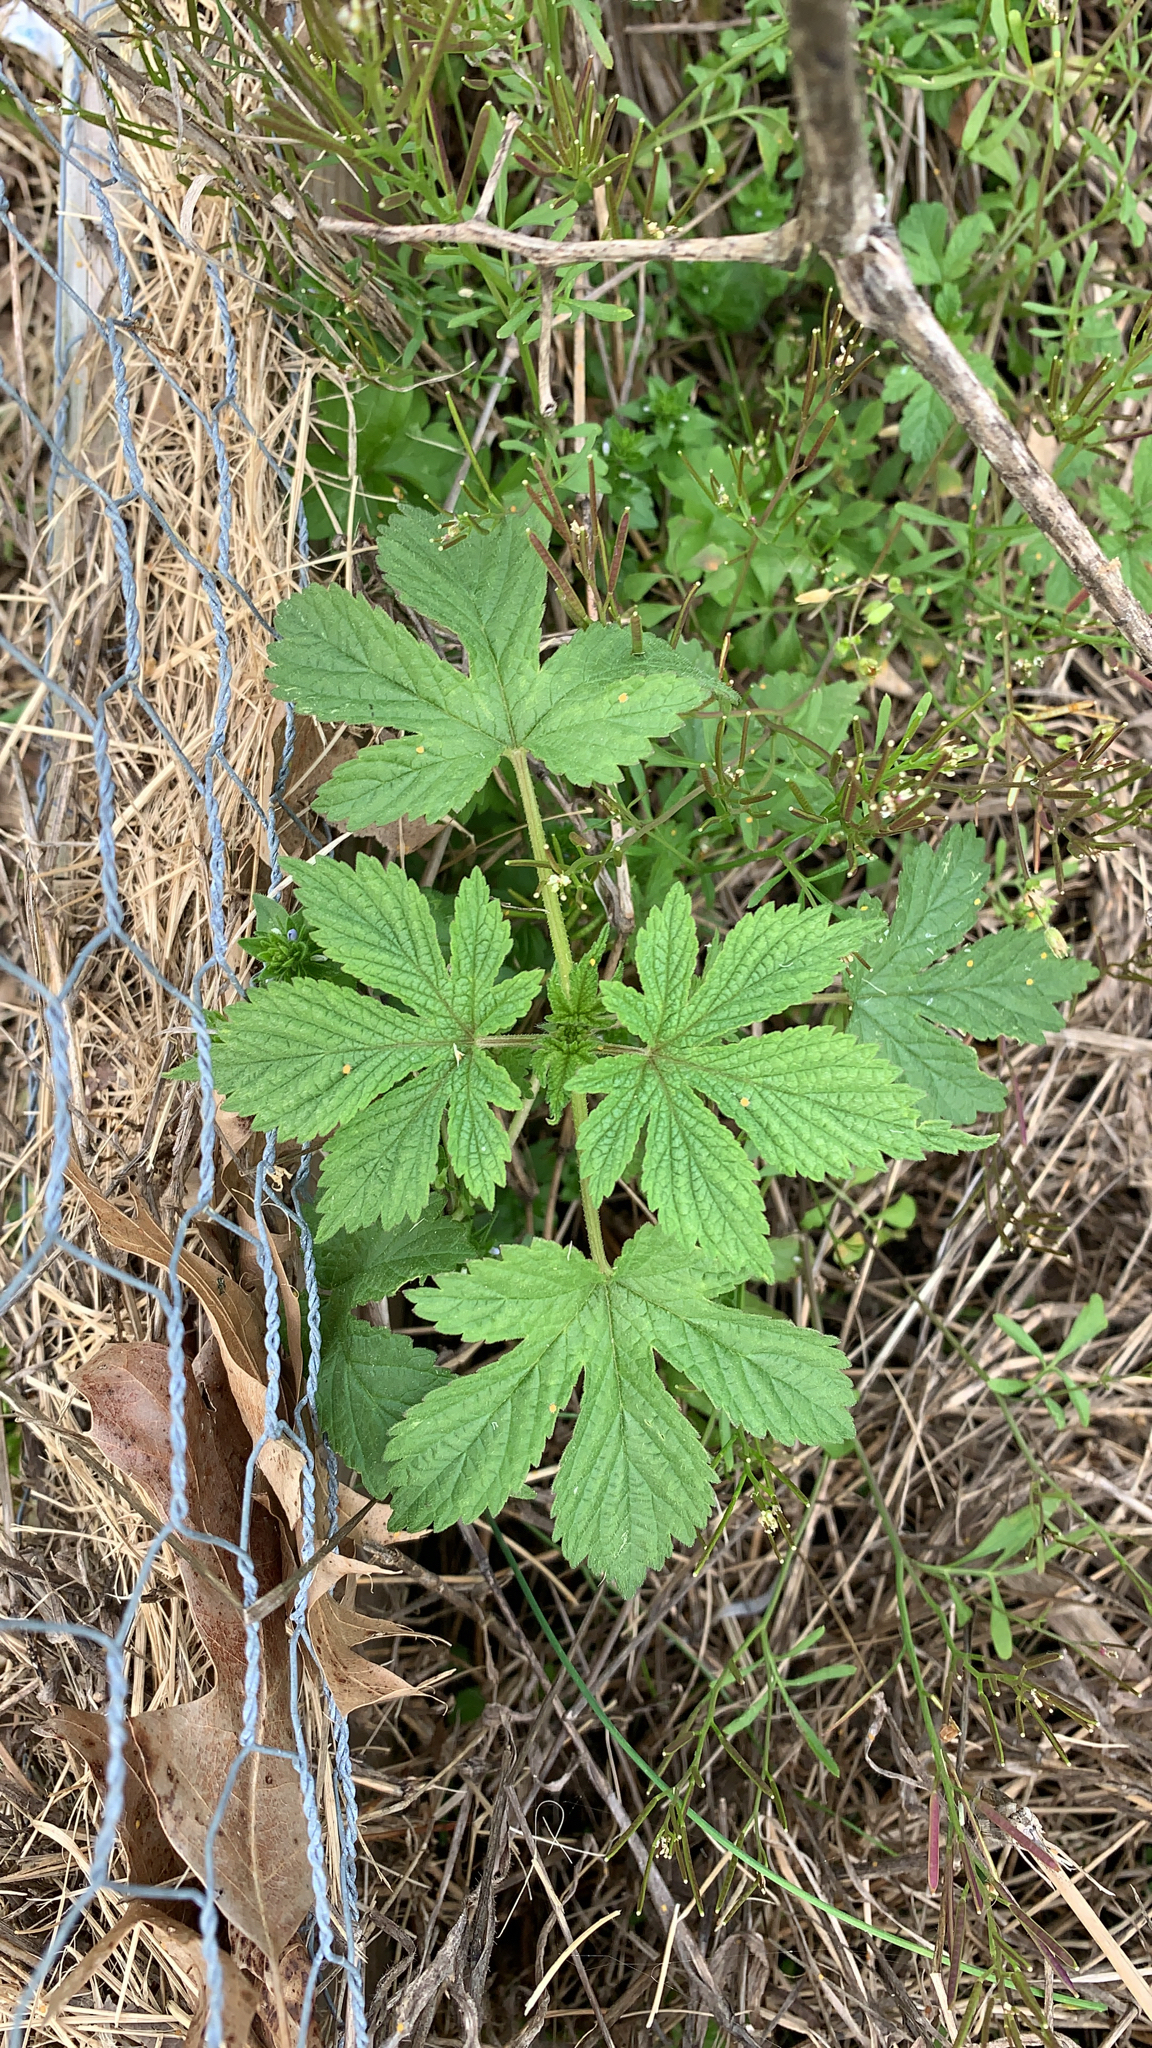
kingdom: Plantae
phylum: Tracheophyta
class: Magnoliopsida
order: Rosales
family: Cannabaceae
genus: Humulus
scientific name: Humulus scandens
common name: Japanese hop
